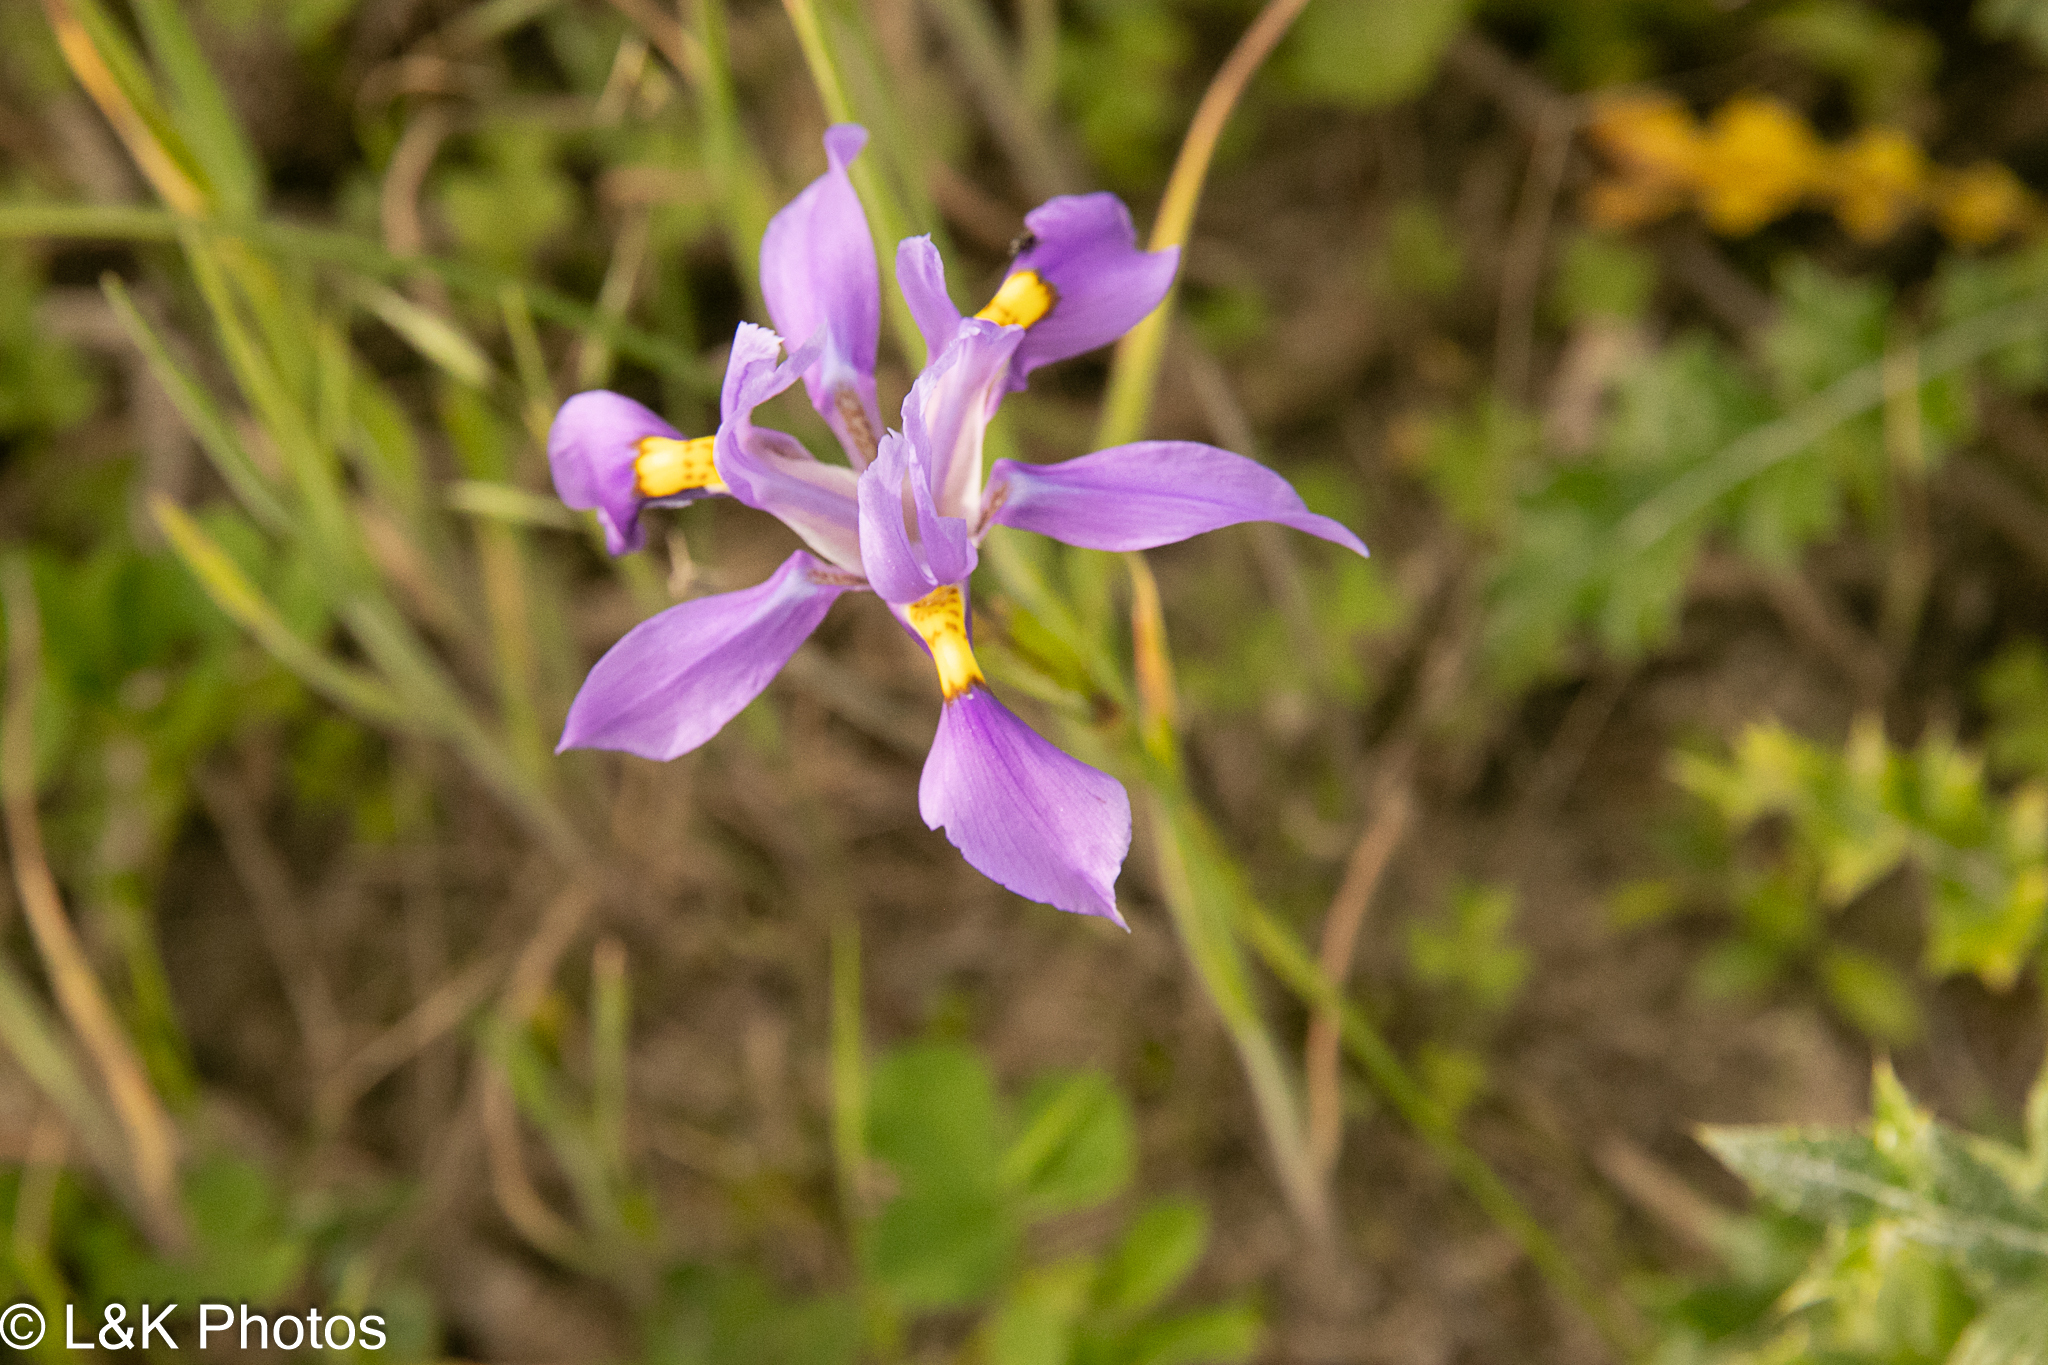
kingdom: Plantae
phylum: Tracheophyta
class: Liliopsida
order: Asparagales
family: Iridaceae
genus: Moraea
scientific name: Moraea fugax
